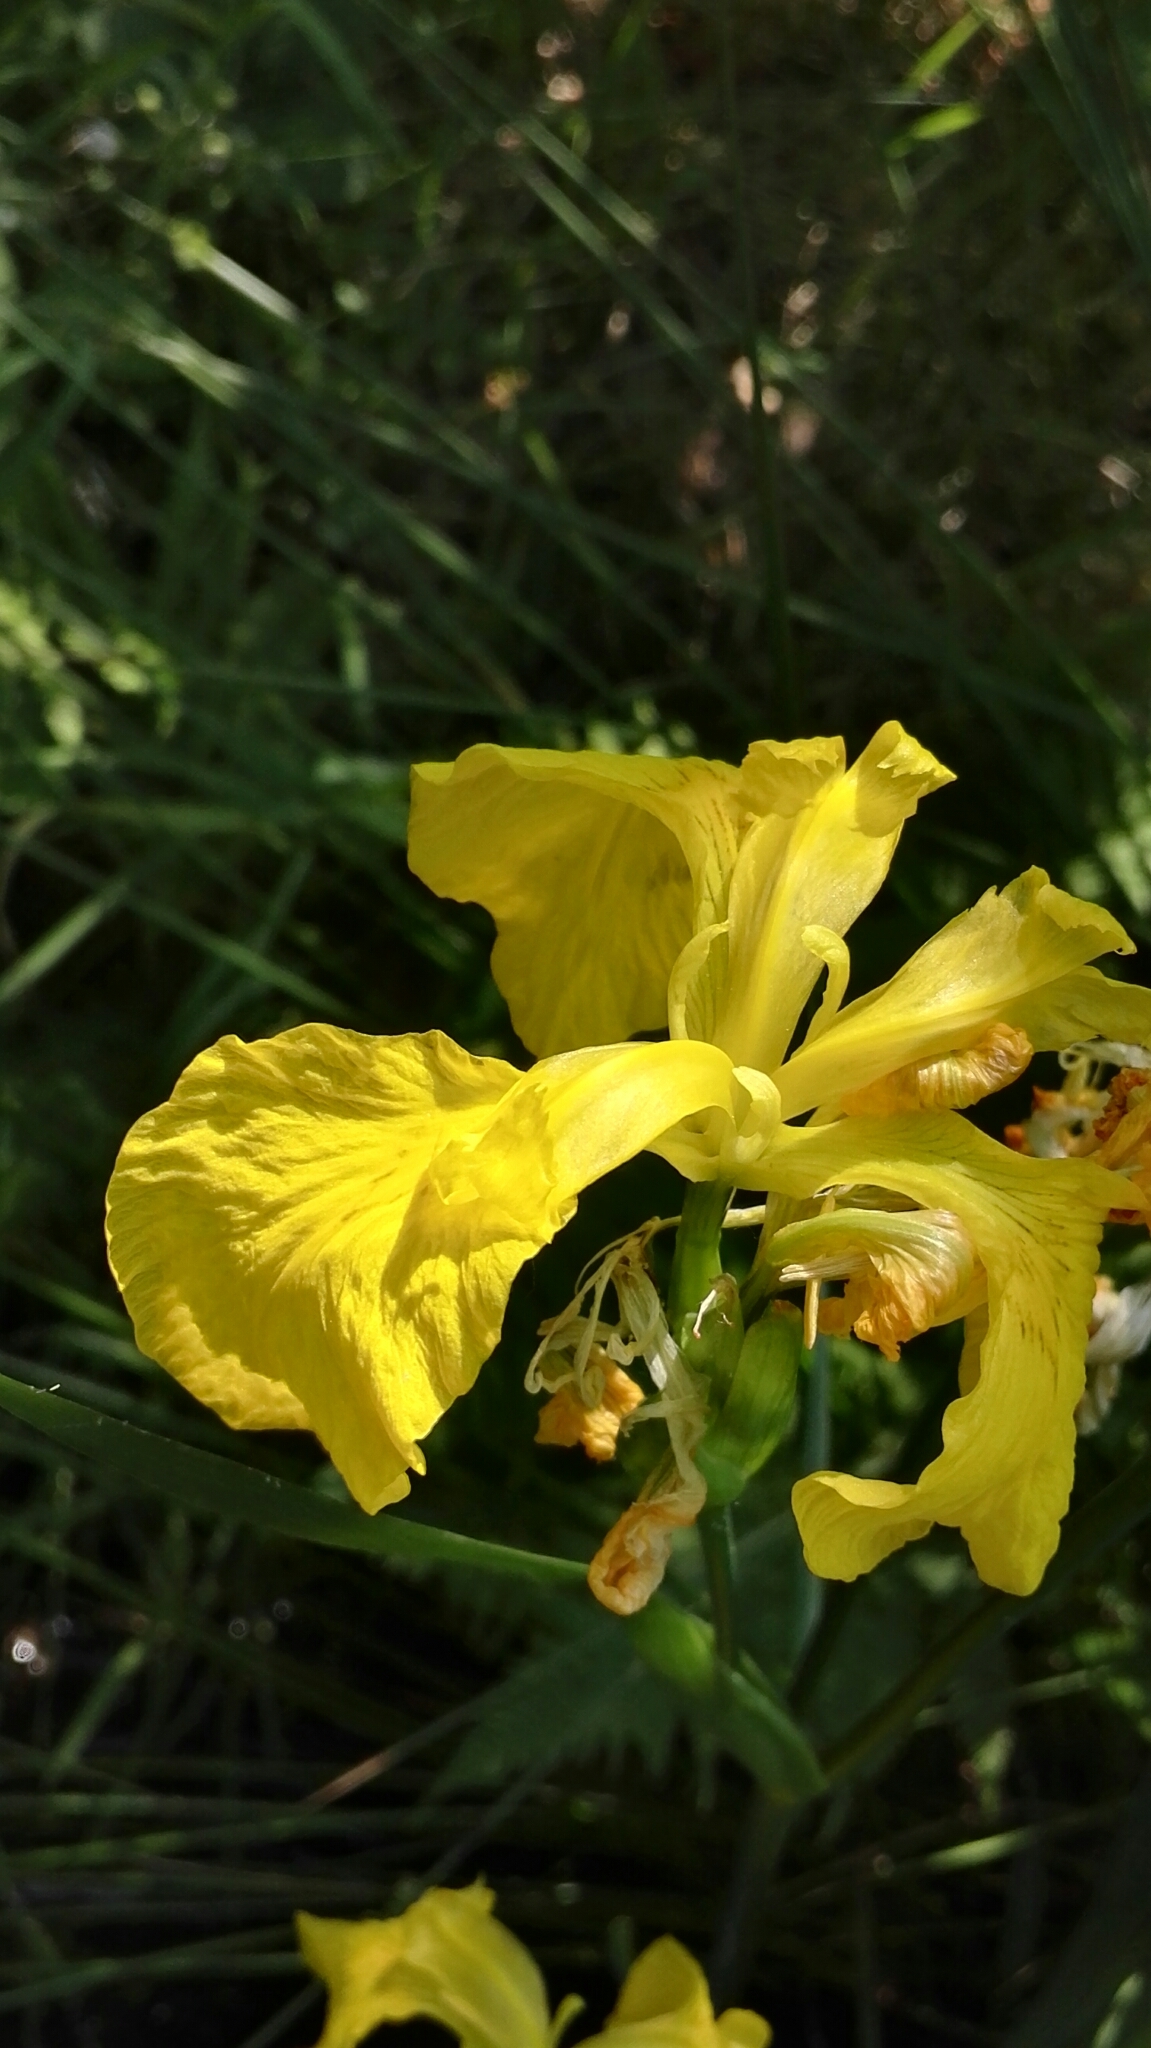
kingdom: Plantae
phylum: Tracheophyta
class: Liliopsida
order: Asparagales
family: Iridaceae
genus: Iris
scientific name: Iris pseudacorus
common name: Yellow flag
